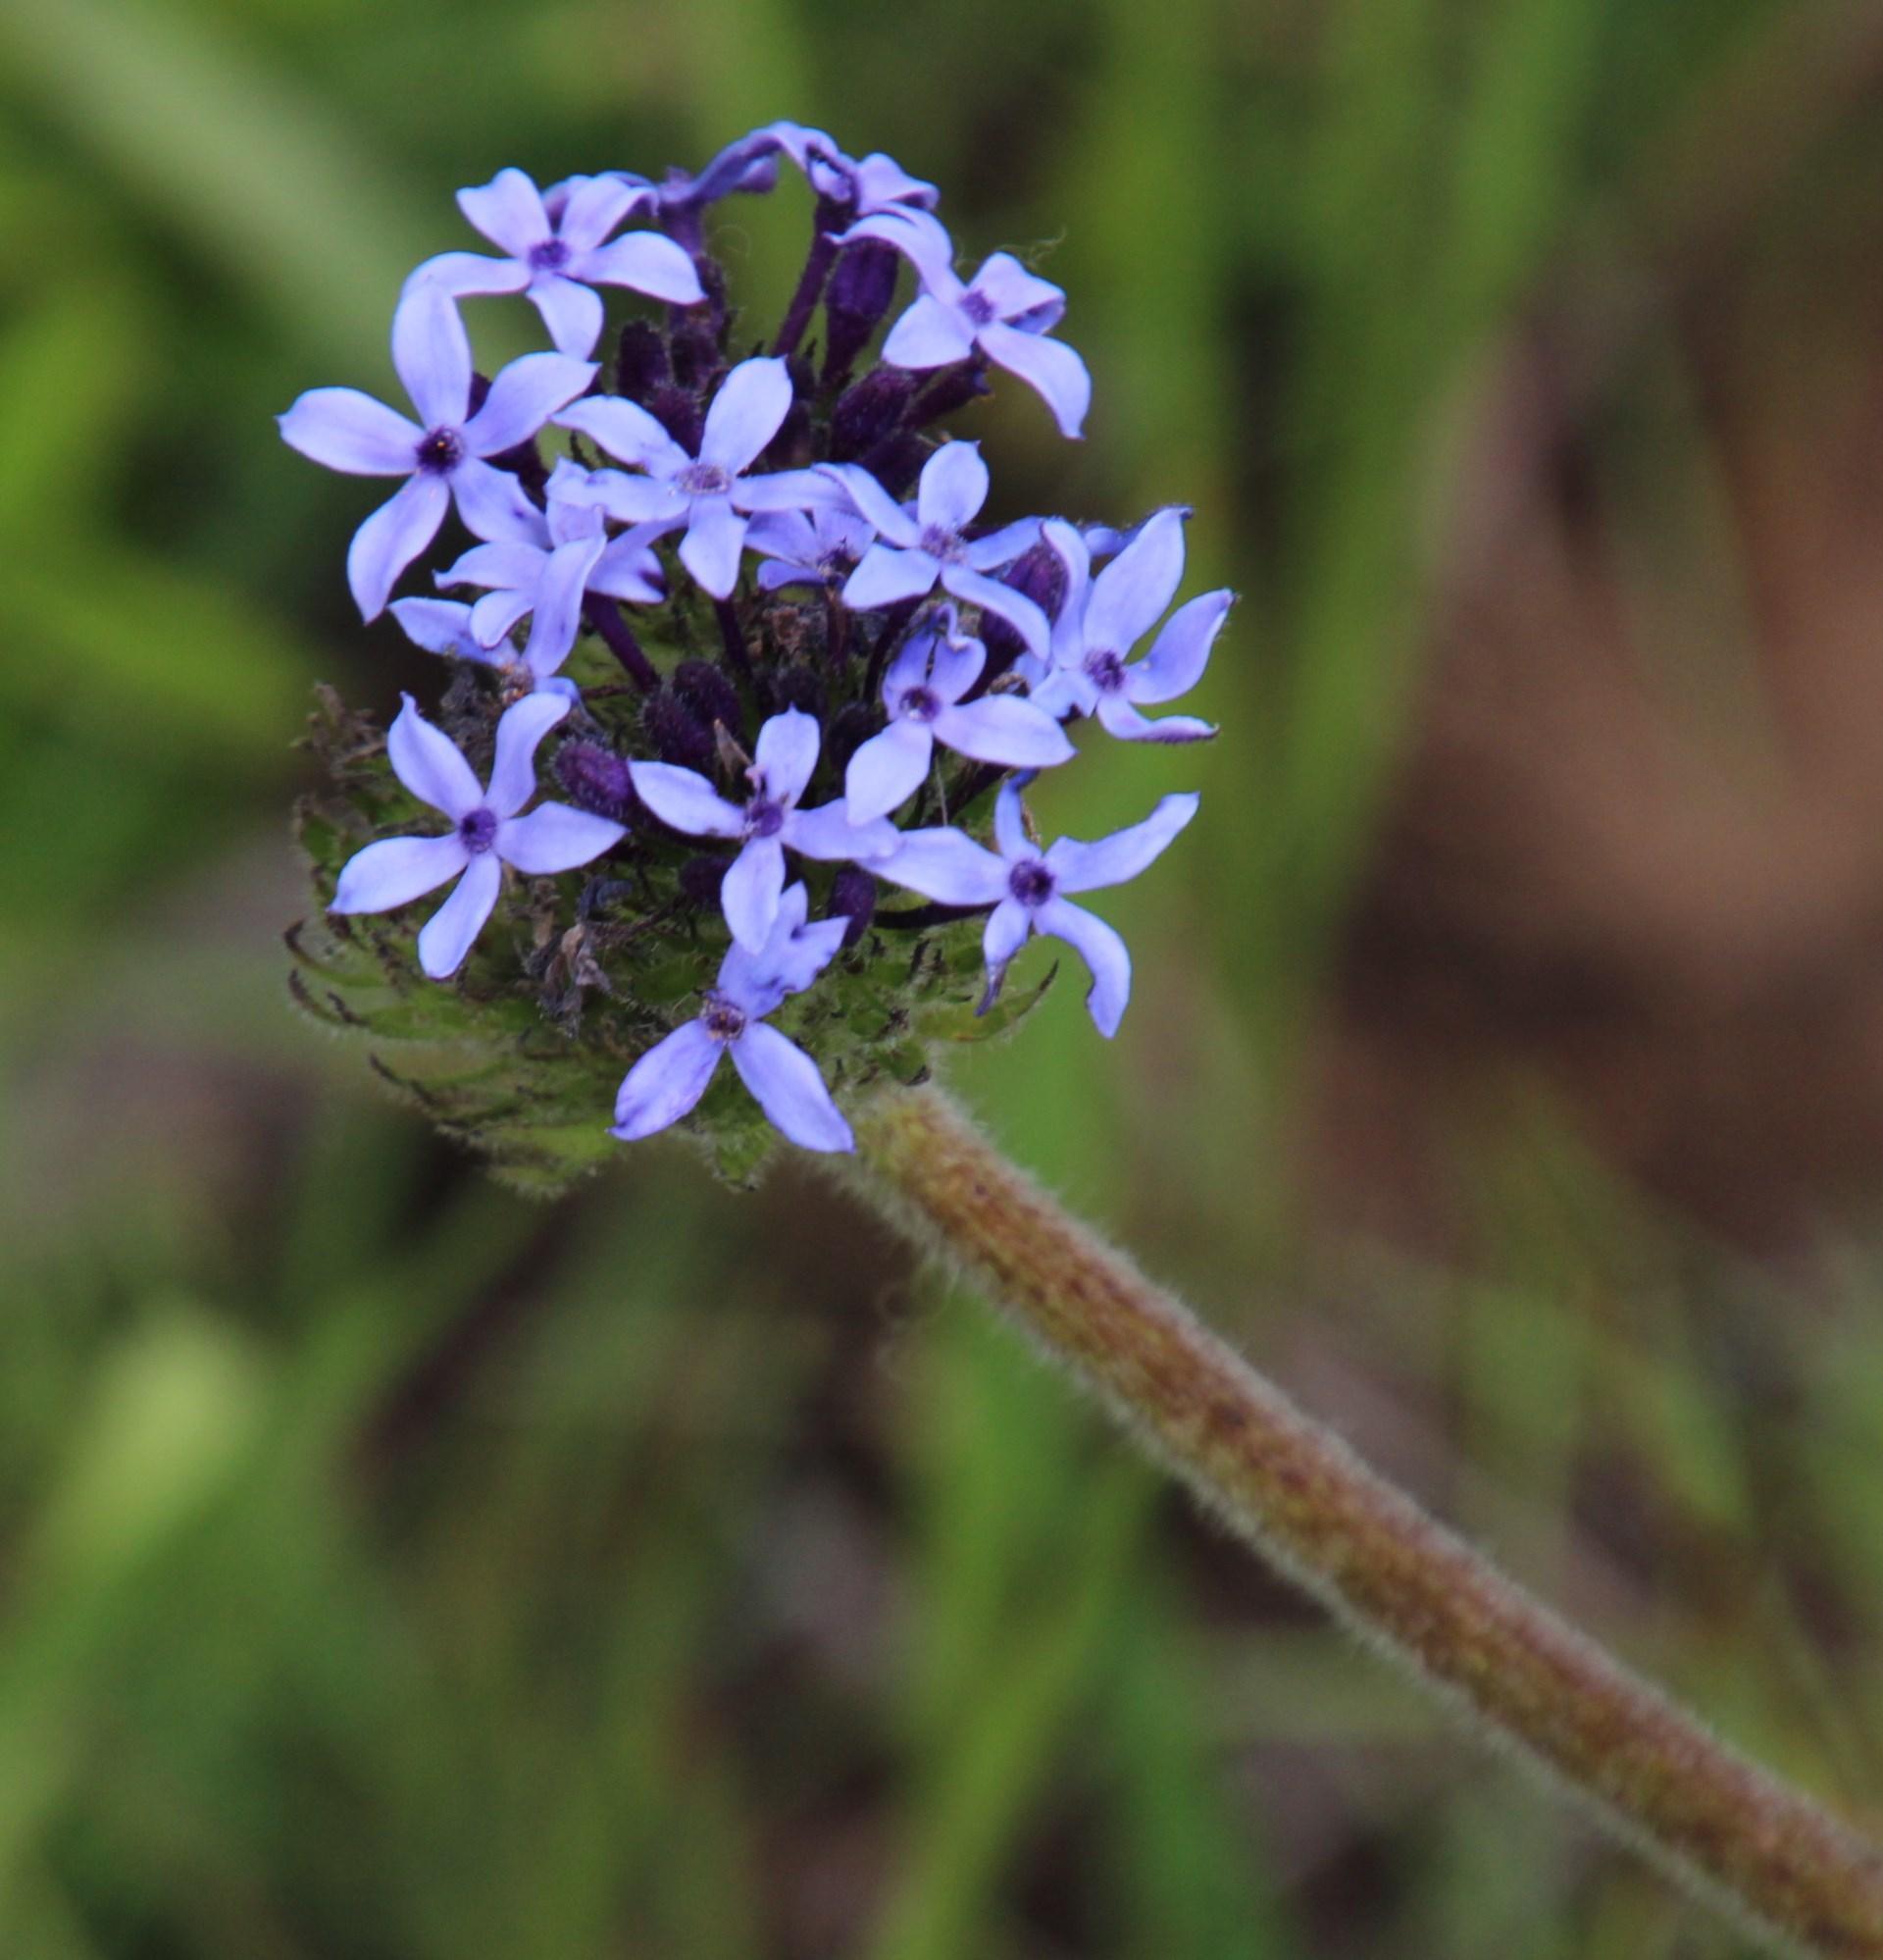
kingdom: Plantae
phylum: Tracheophyta
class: Magnoliopsida
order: Gentianales
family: Rubiaceae
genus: Pentanisia
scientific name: Pentanisia angustifolia
